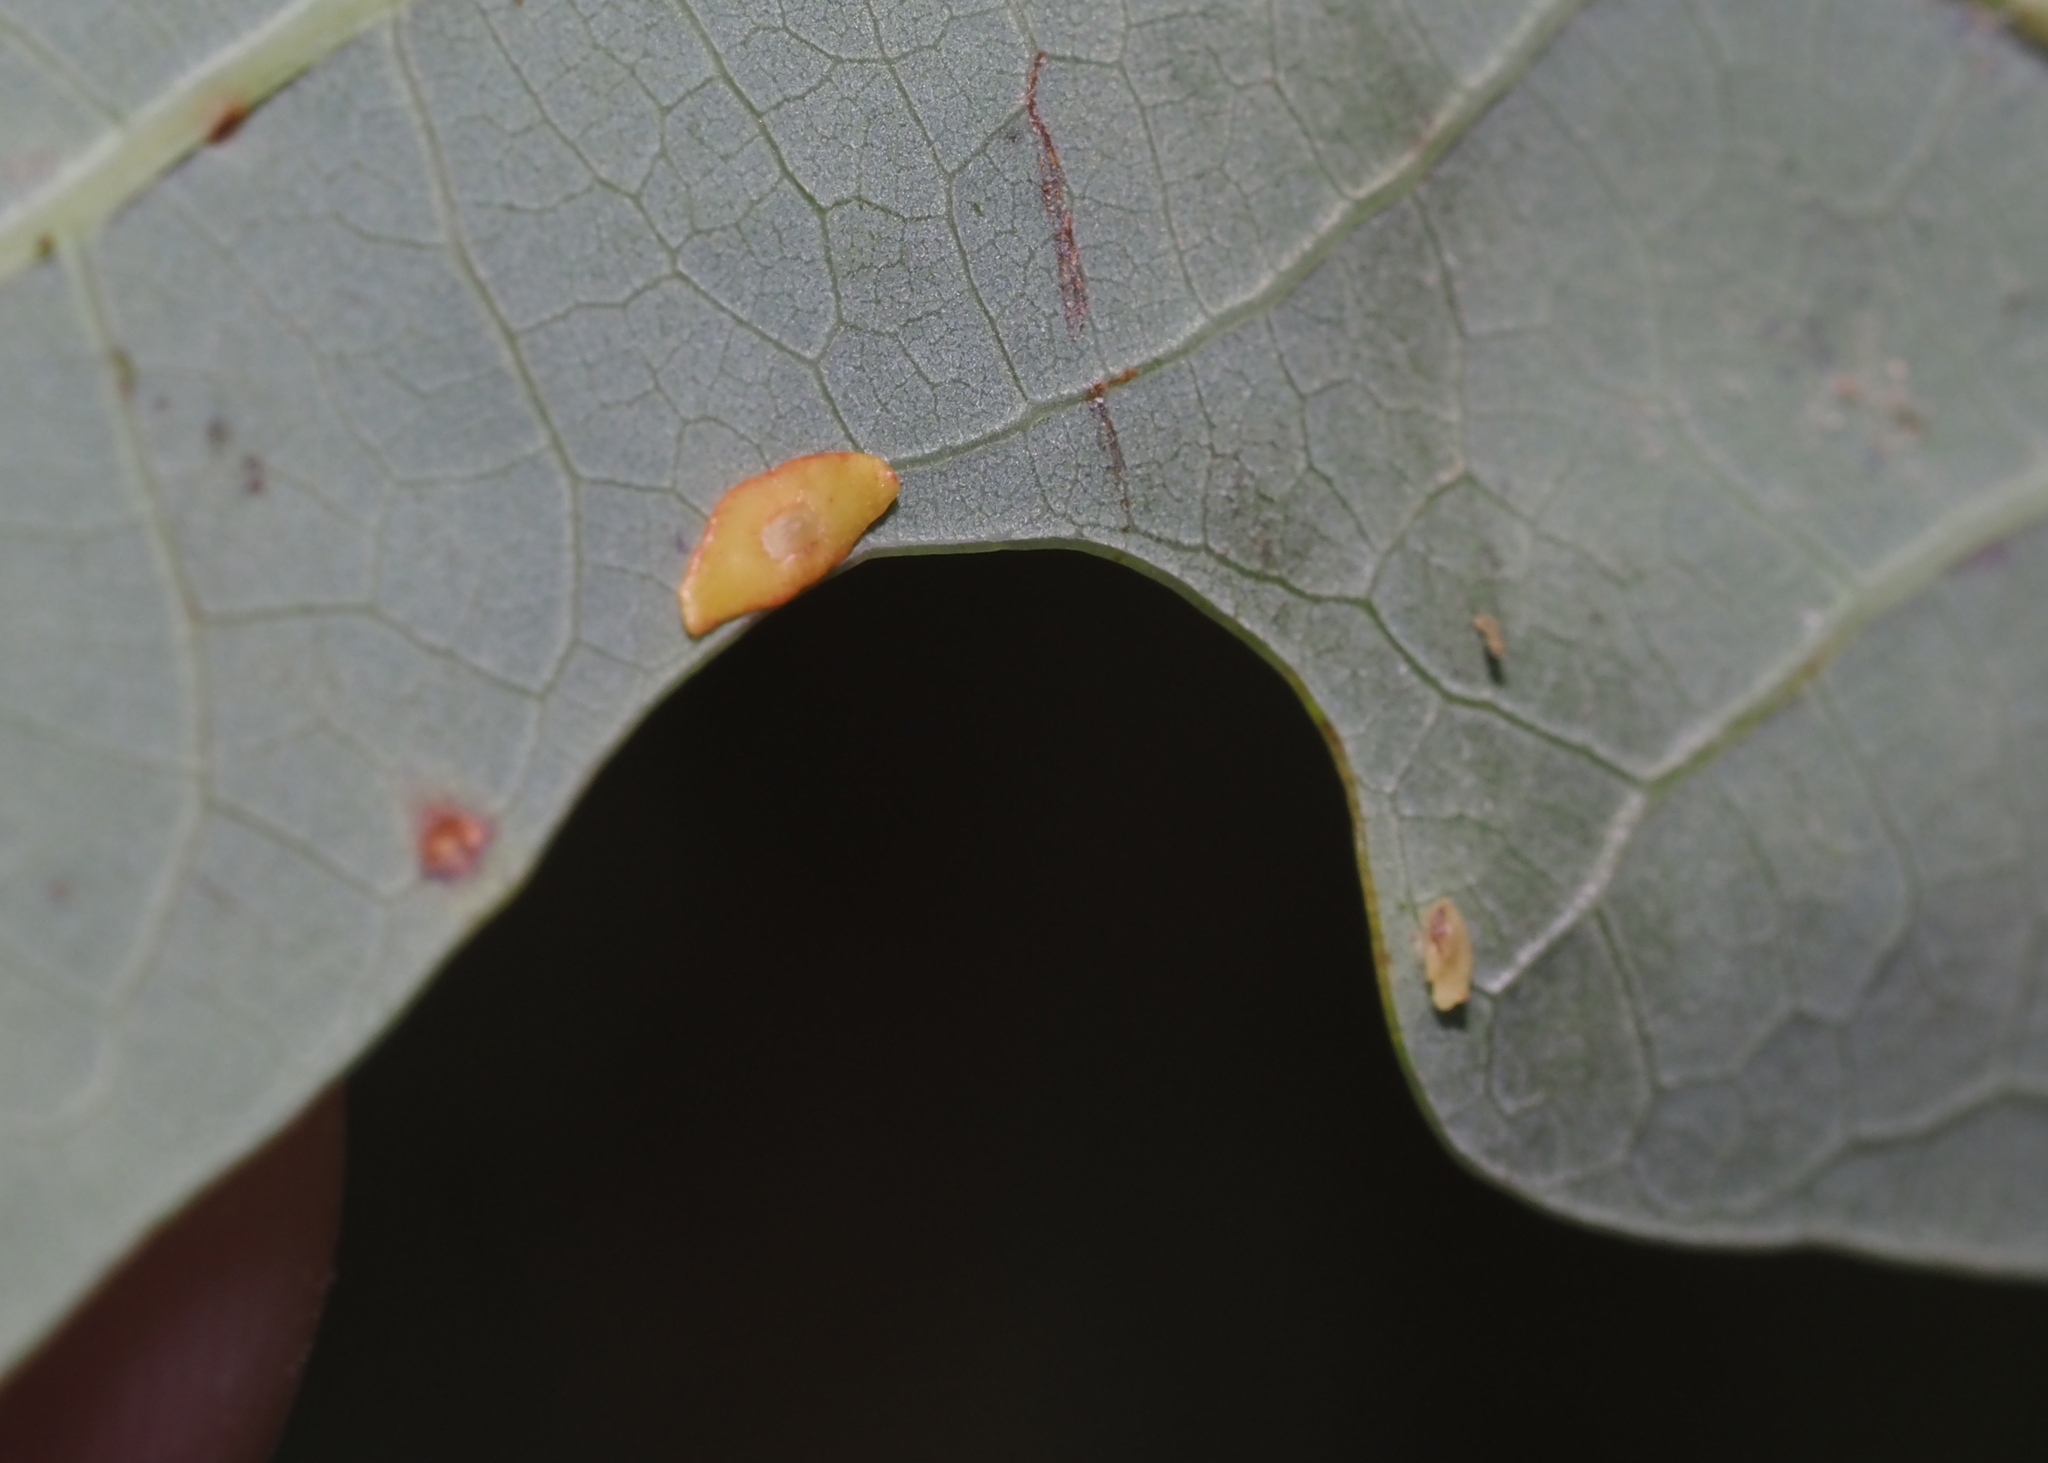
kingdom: Animalia
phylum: Arthropoda
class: Insecta
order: Hymenoptera
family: Cynipidae
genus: Phylloteras
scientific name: Phylloteras
